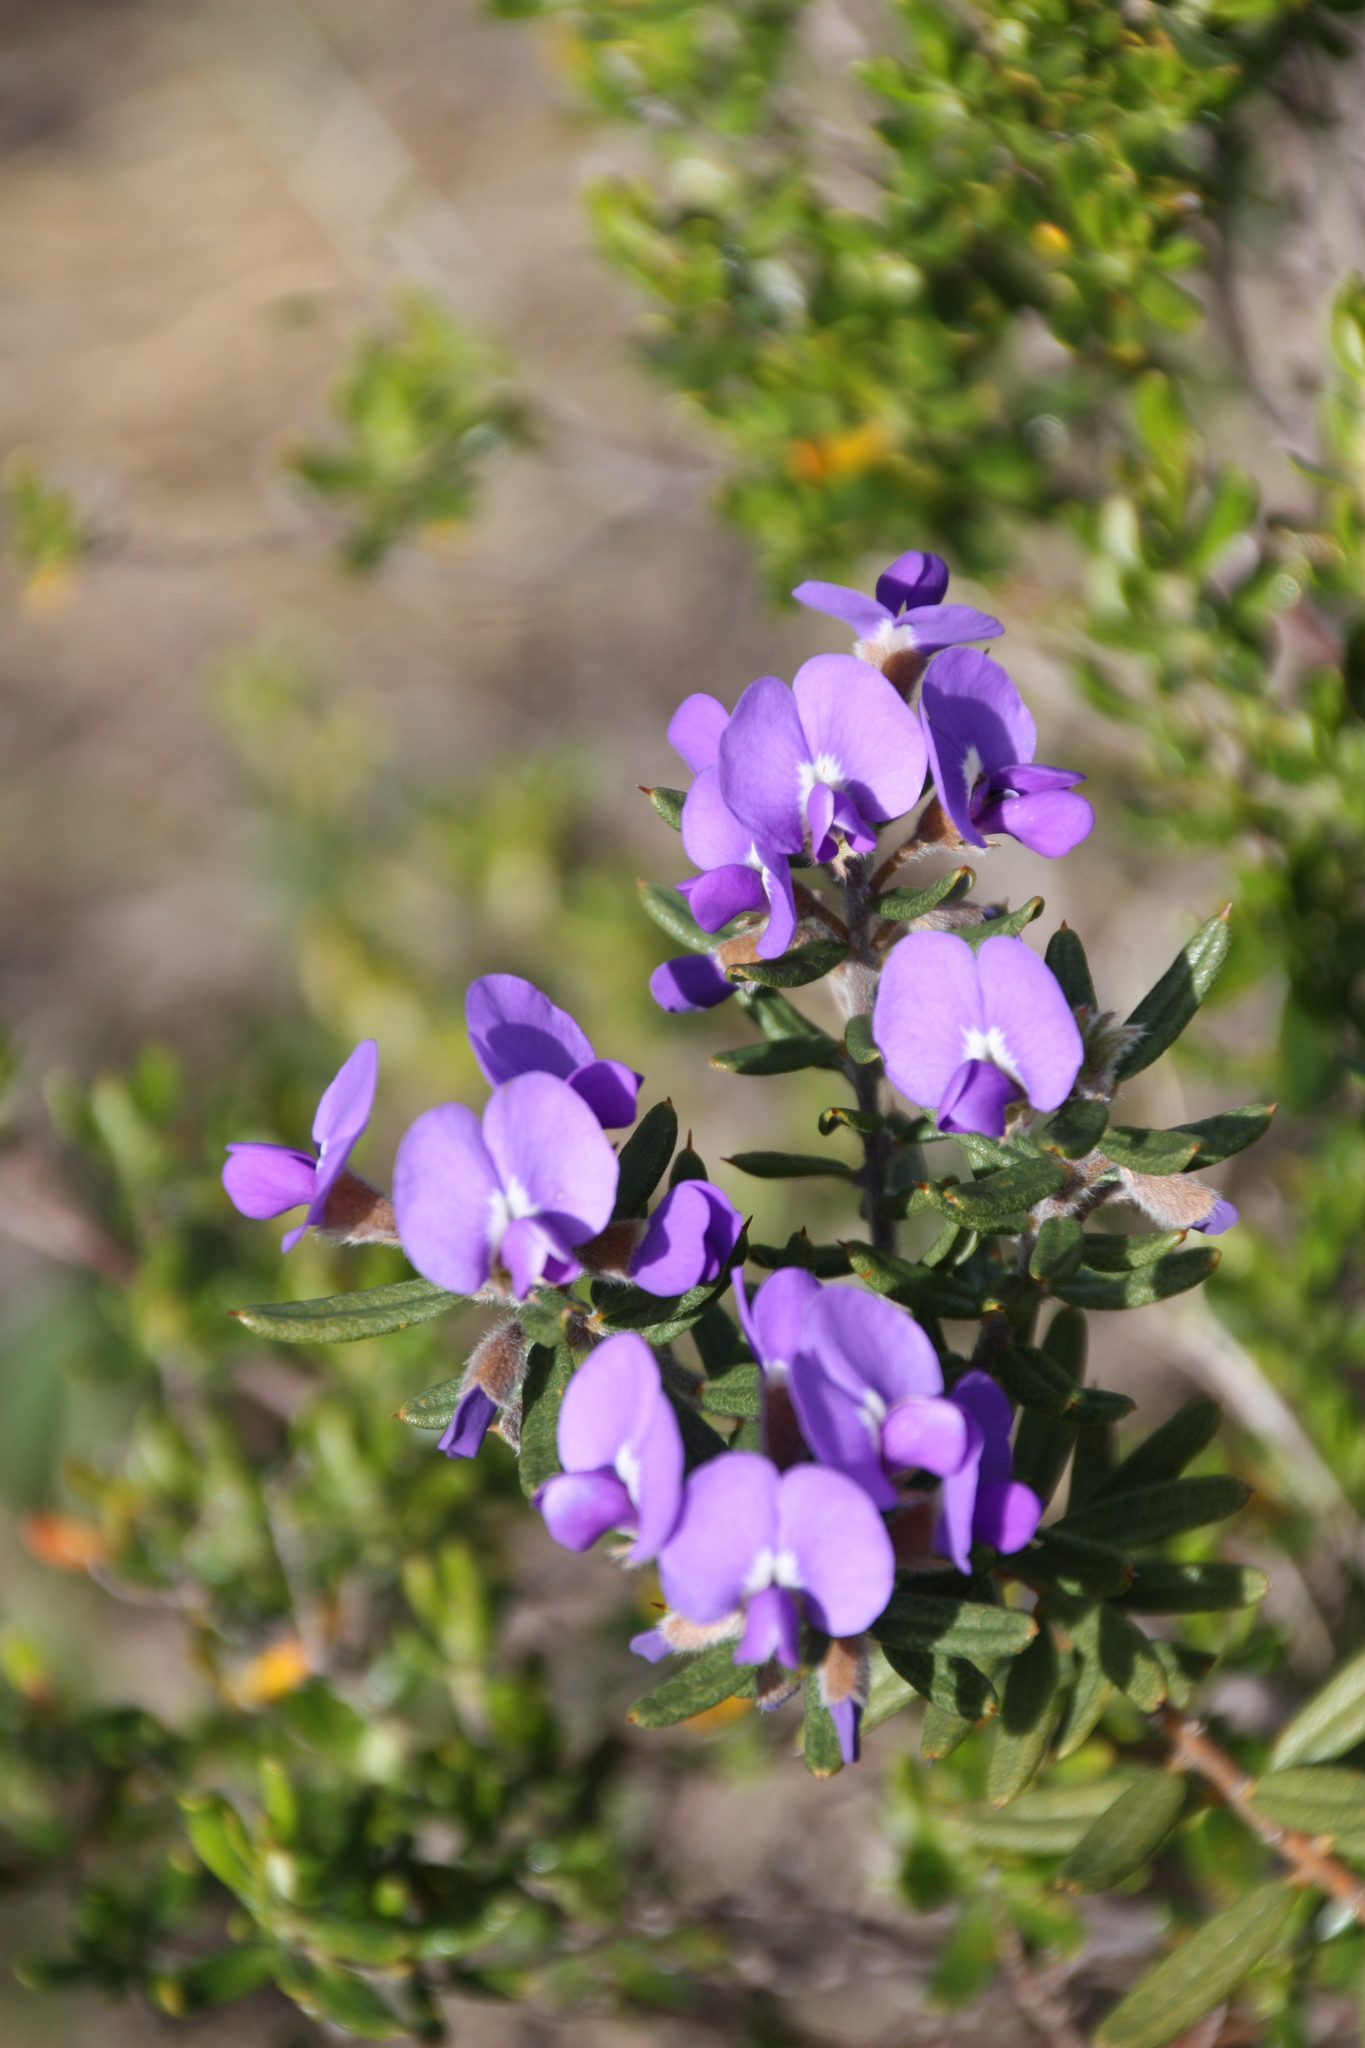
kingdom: Plantae
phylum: Tracheophyta
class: Magnoliopsida
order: Fabales
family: Fabaceae
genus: Hovea
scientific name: Hovea stricta
